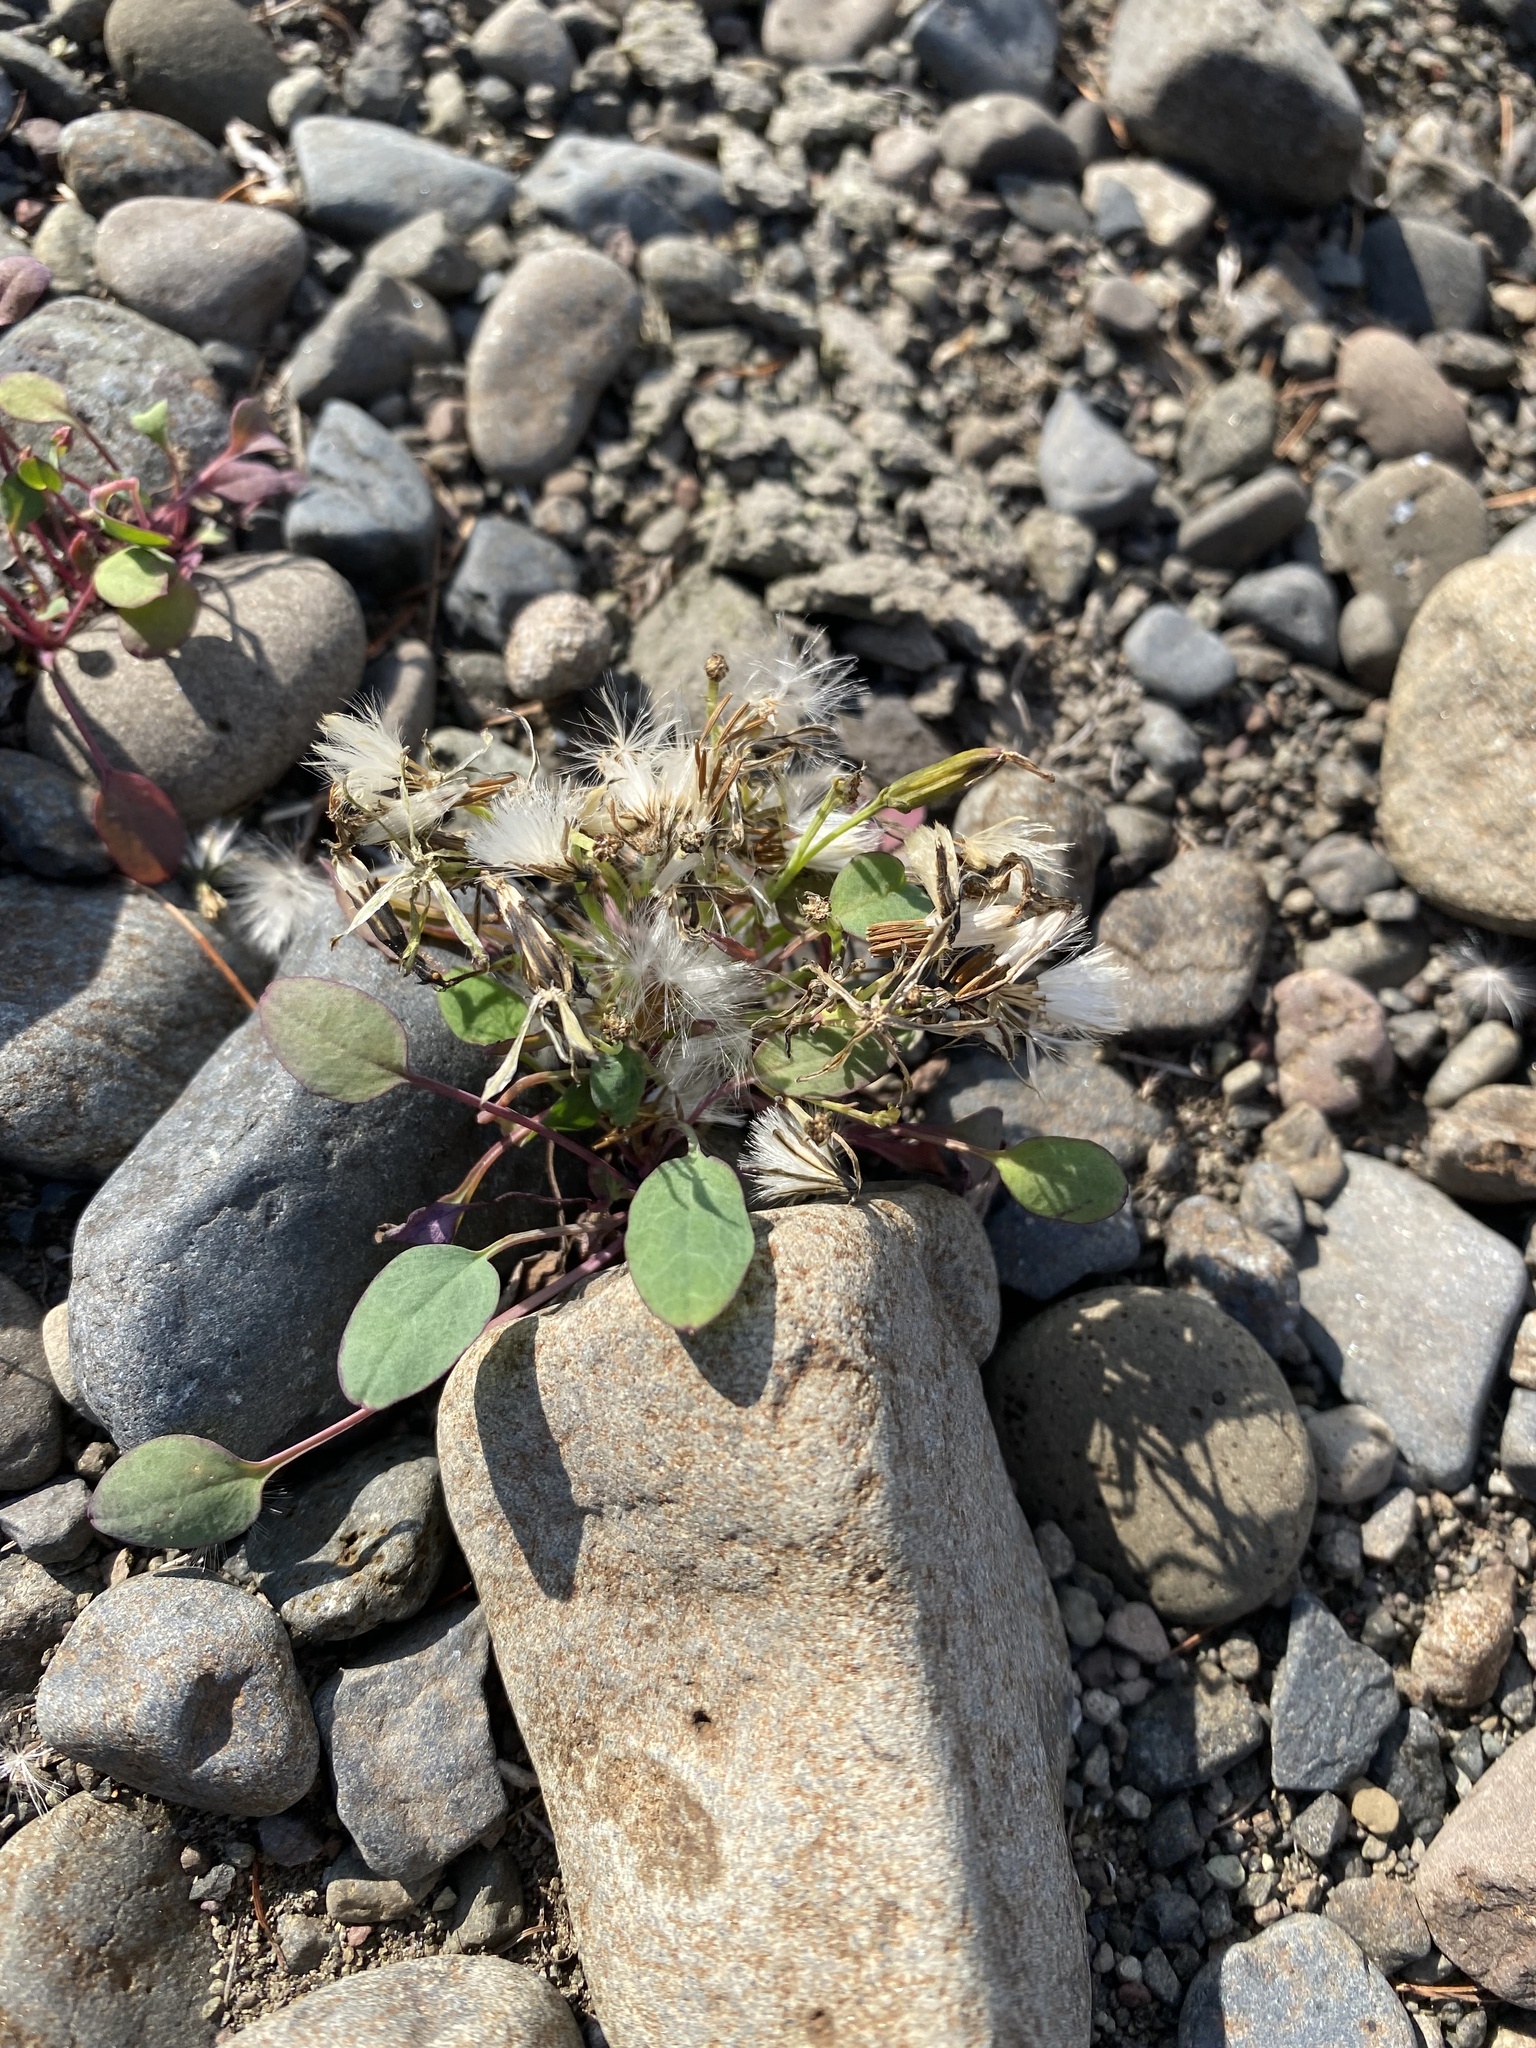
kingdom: Plantae
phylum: Tracheophyta
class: Magnoliopsida
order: Asterales
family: Asteraceae
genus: Askellia
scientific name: Askellia pygmaea
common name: Dwarf alpine hawksbeard
